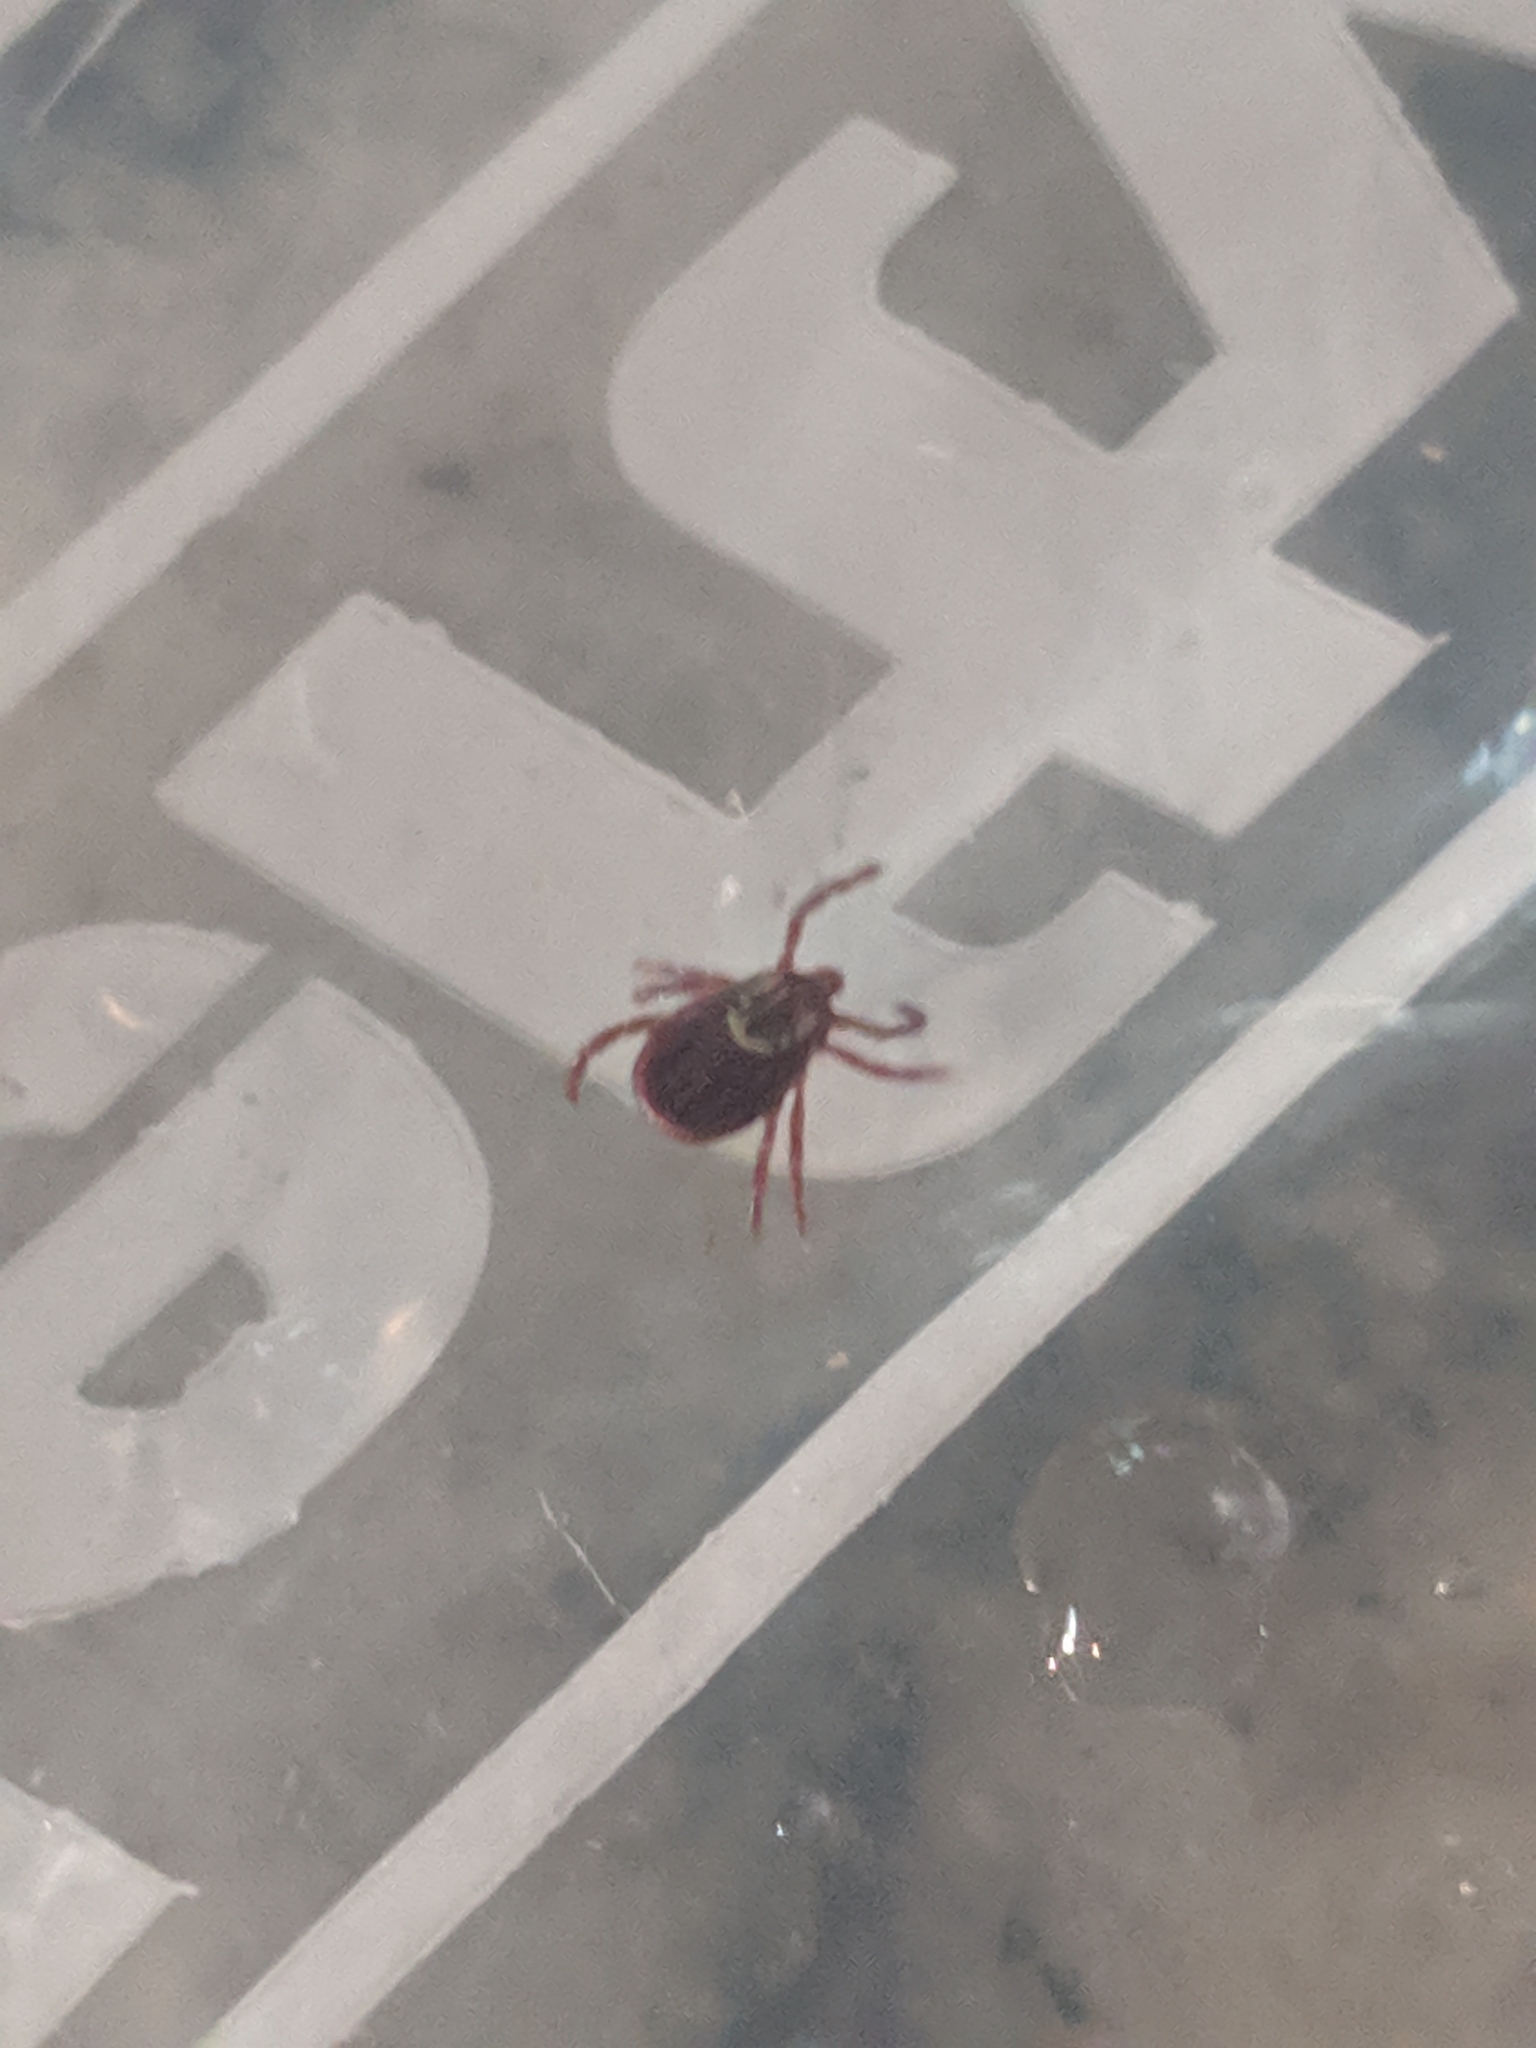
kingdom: Animalia
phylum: Arthropoda
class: Arachnida
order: Ixodida
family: Ixodidae
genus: Dermacentor
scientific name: Dermacentor variabilis
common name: American dog tick
